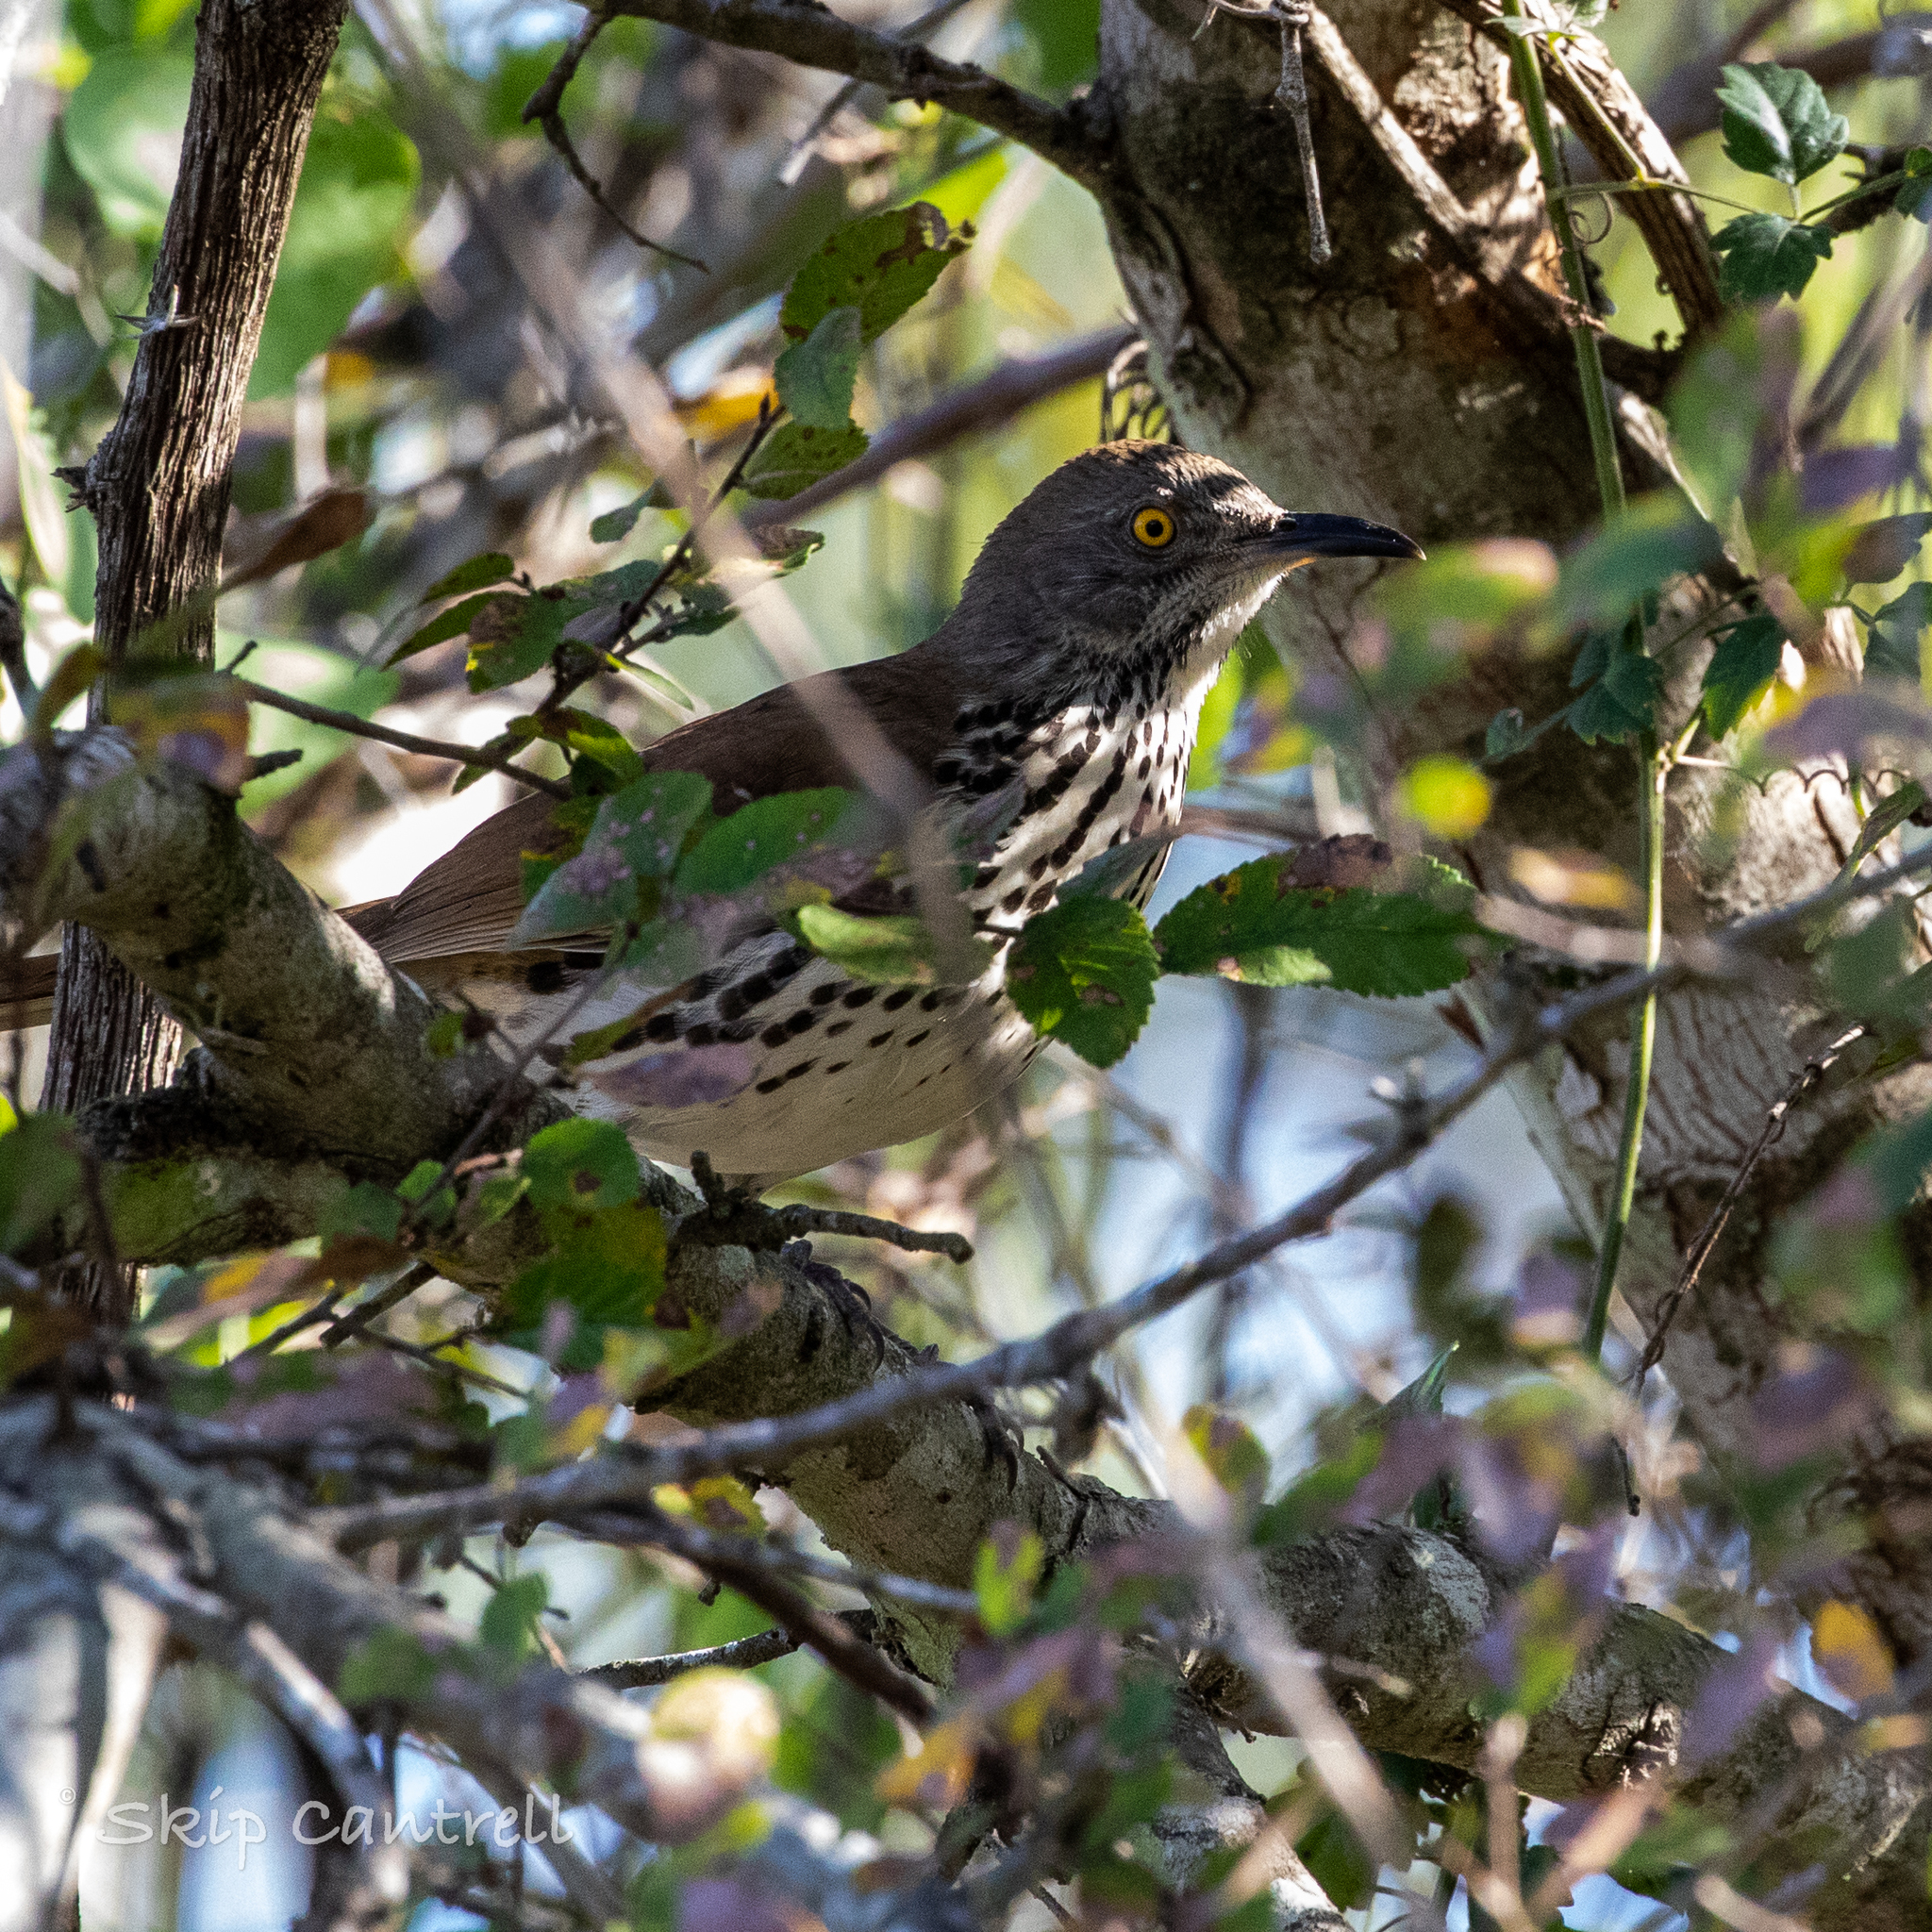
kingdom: Animalia
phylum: Chordata
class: Aves
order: Passeriformes
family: Mimidae
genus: Toxostoma
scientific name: Toxostoma longirostre
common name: Long-billed thrasher
